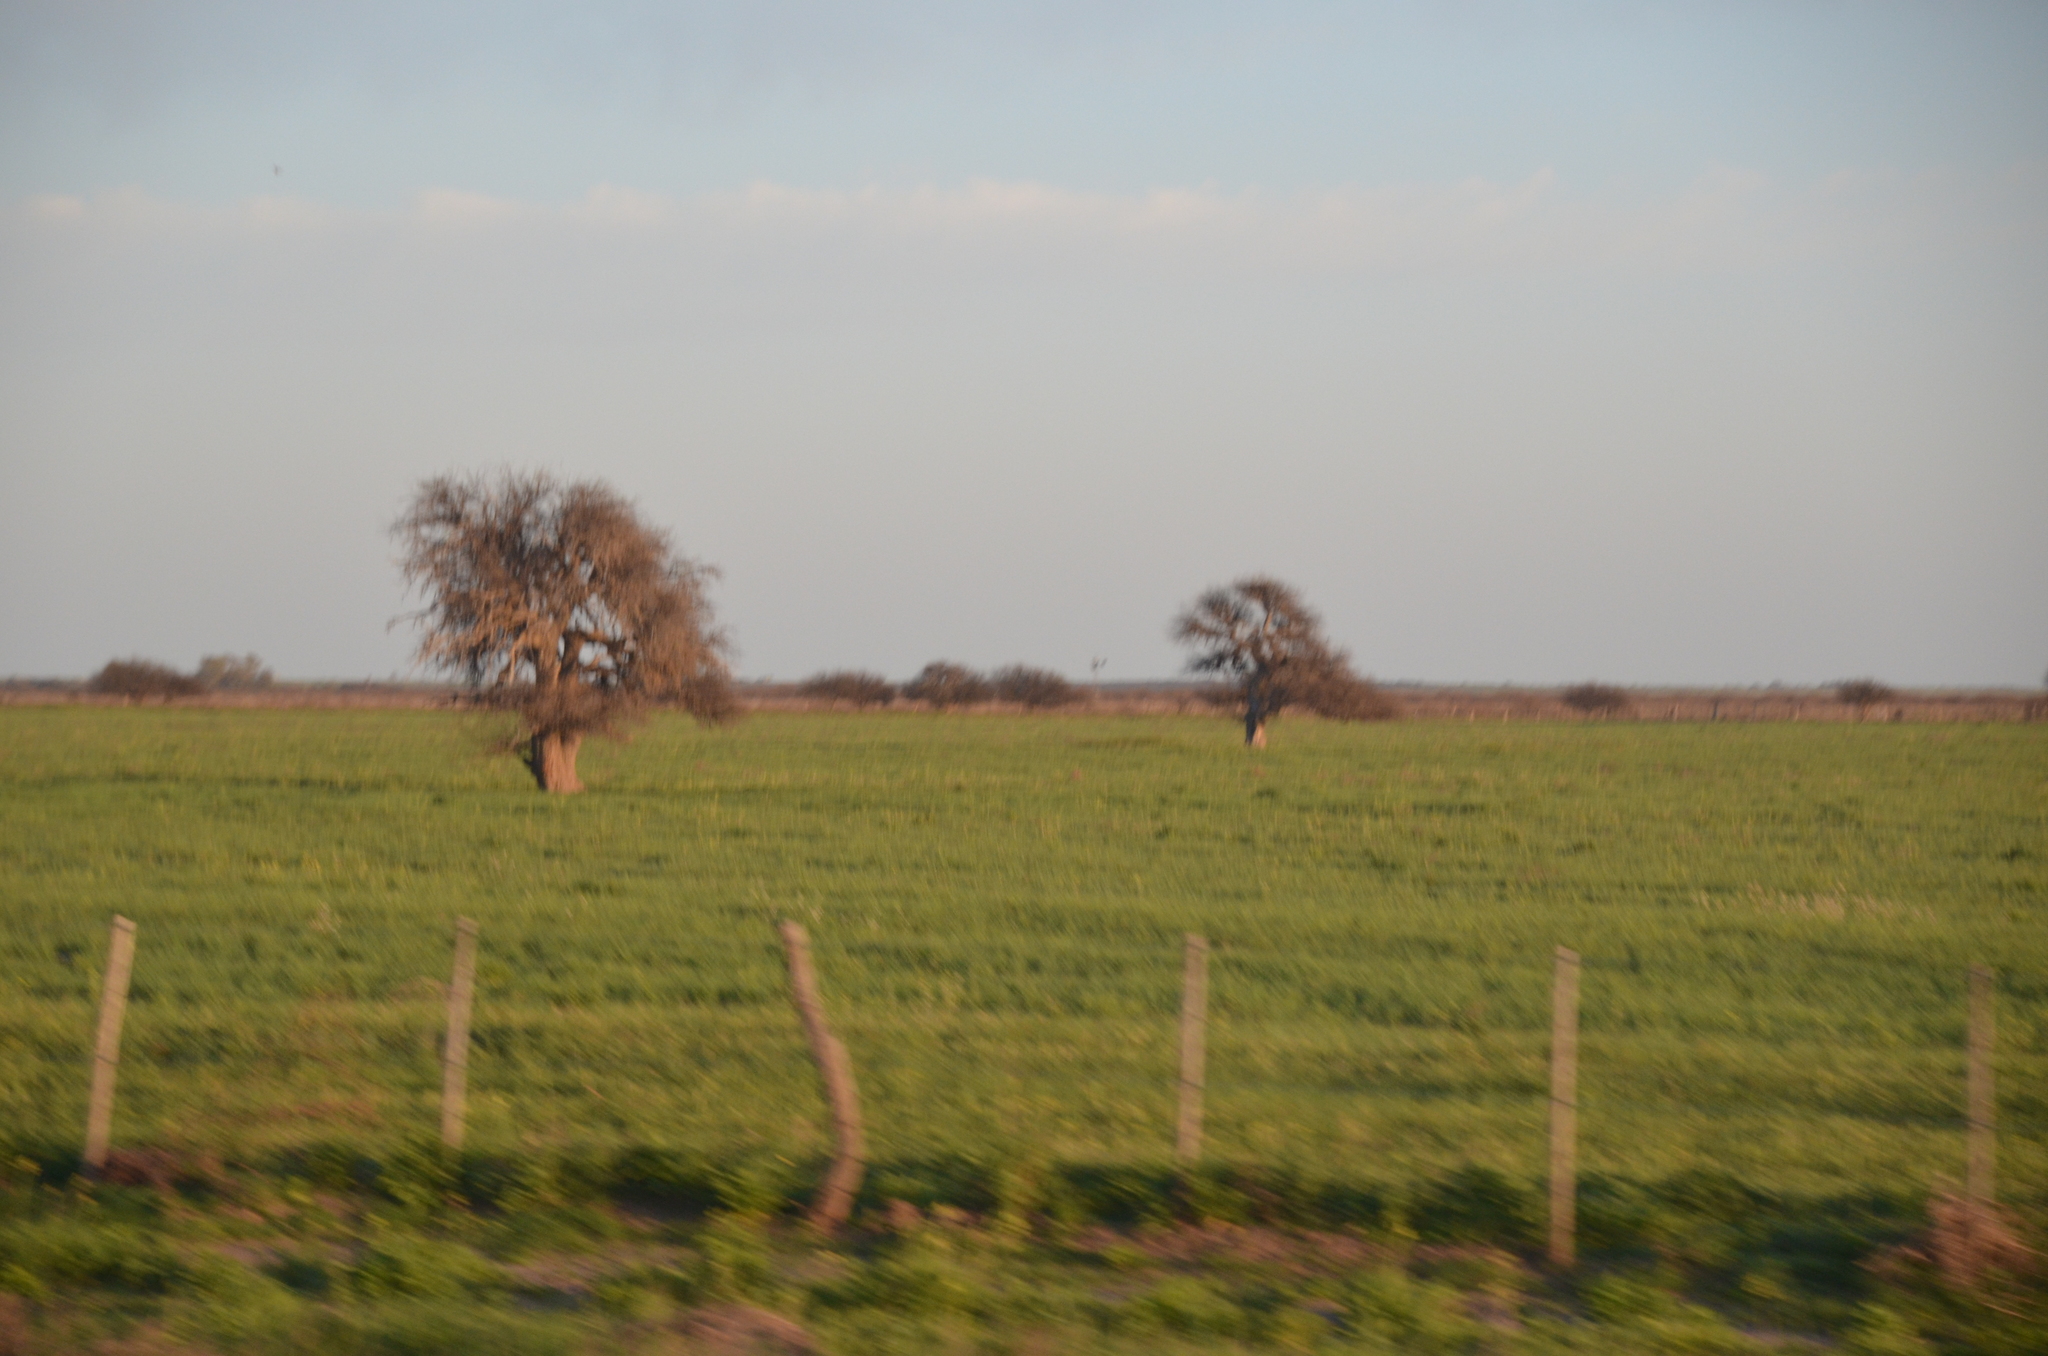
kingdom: Plantae
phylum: Tracheophyta
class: Magnoliopsida
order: Fabales
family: Fabaceae
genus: Prosopis
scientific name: Prosopis caldenia
